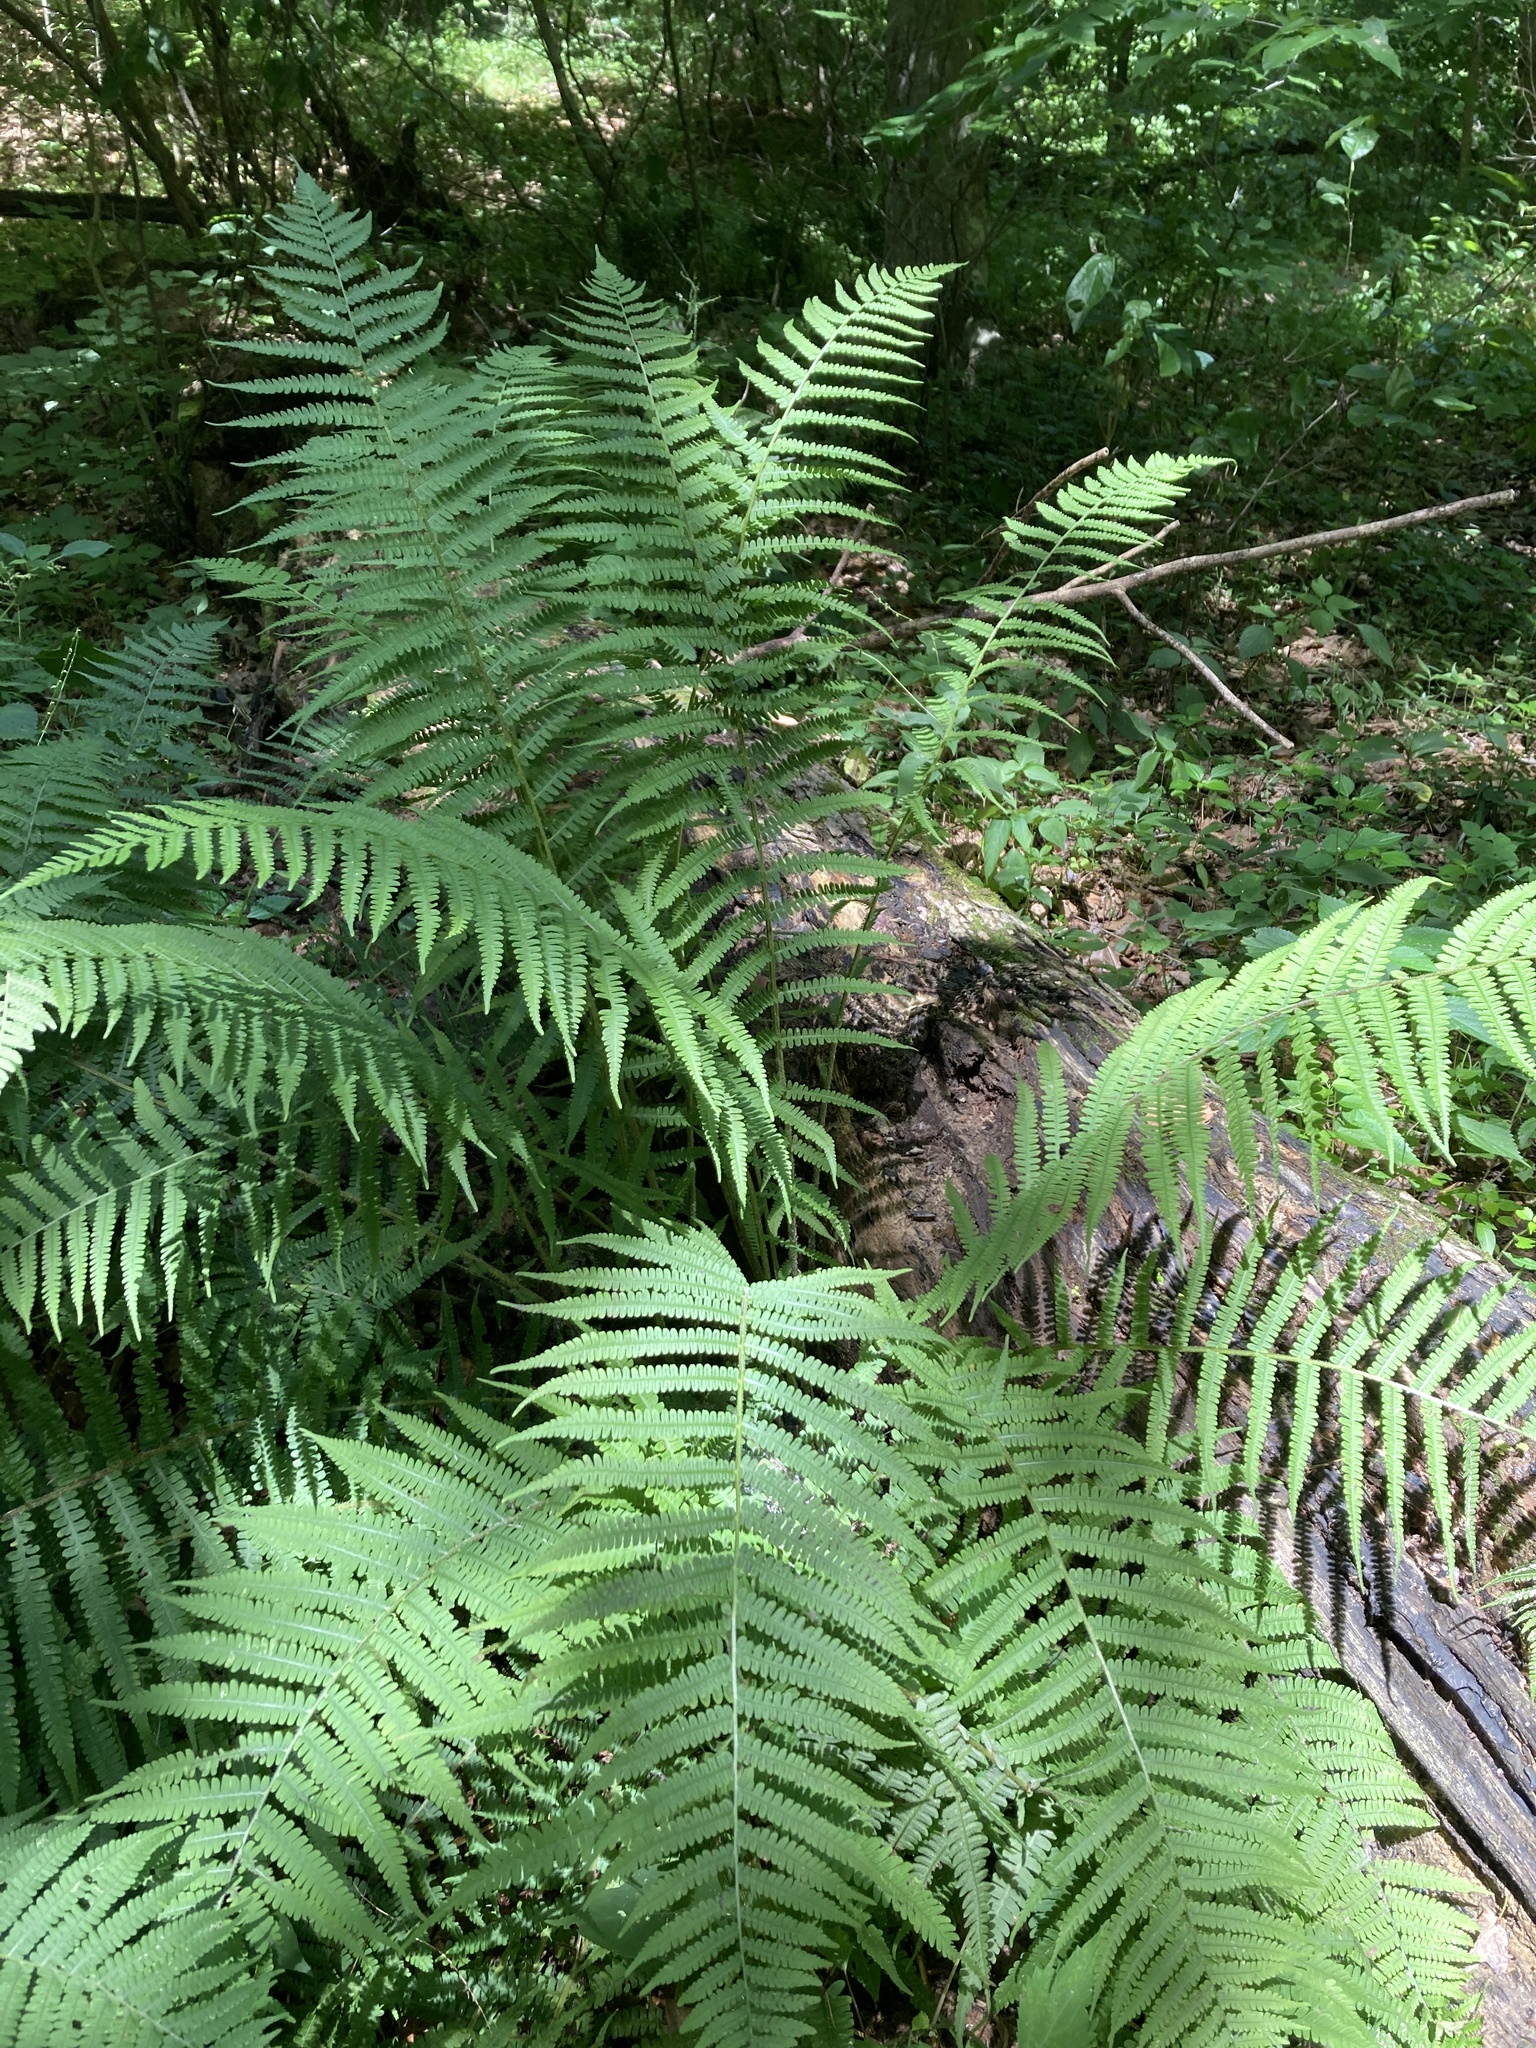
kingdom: Plantae
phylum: Tracheophyta
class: Polypodiopsida
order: Polypodiales
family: Athyriaceae
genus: Deparia
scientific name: Deparia acrostichoides
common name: Silver false spleenwort
